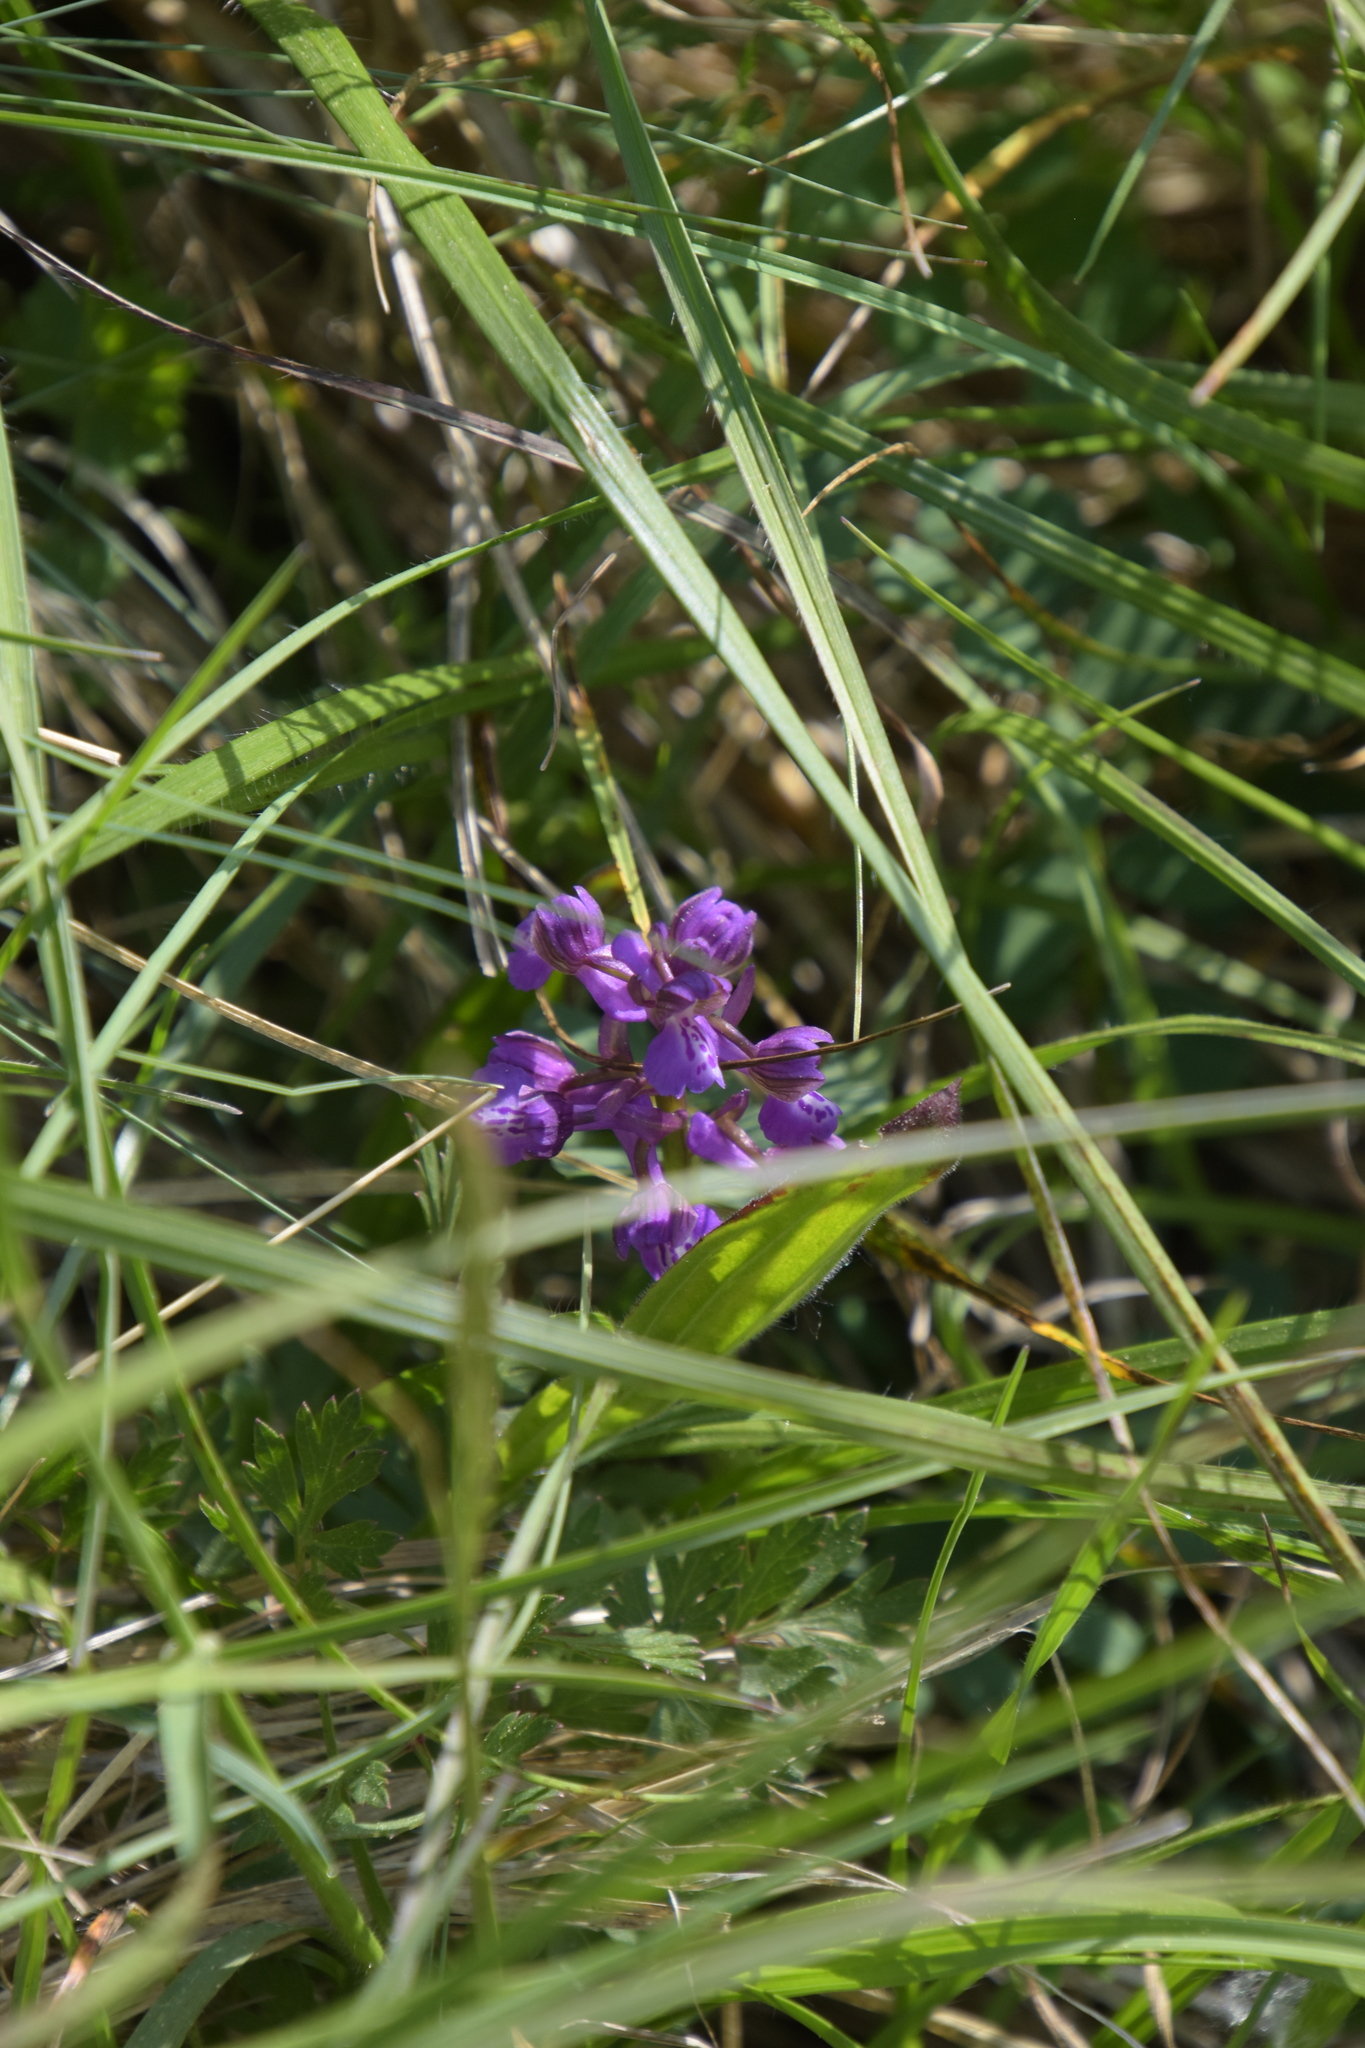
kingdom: Plantae
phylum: Tracheophyta
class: Liliopsida
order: Asparagales
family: Orchidaceae
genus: Anacamptis
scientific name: Anacamptis morio
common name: Green-winged orchid
